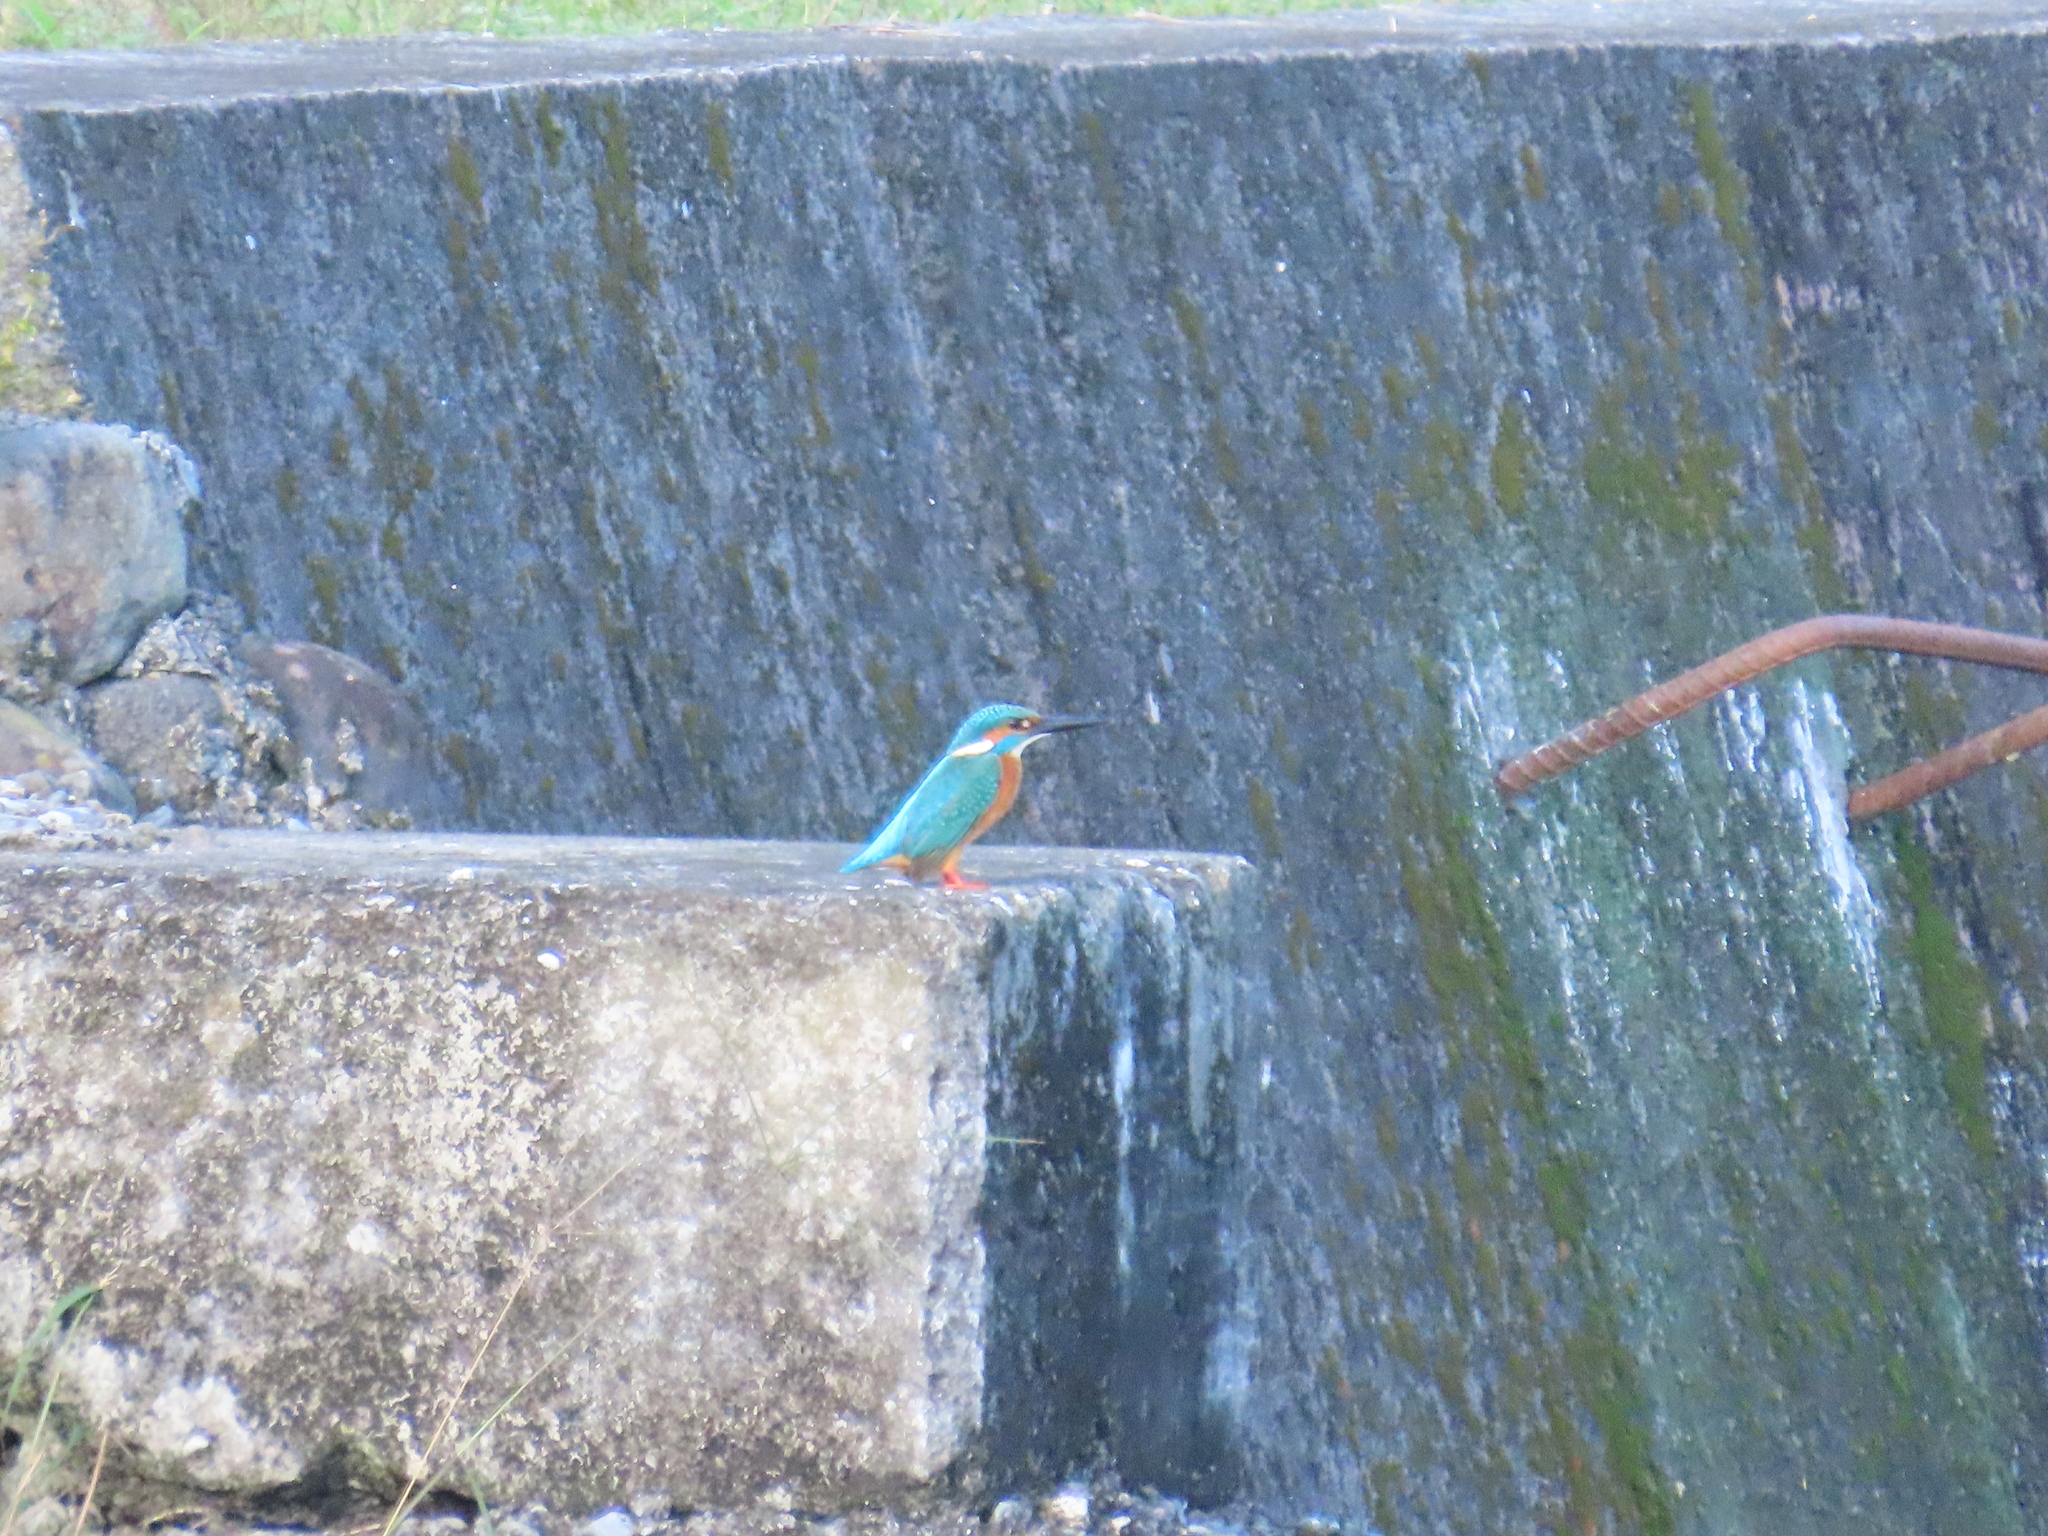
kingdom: Animalia
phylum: Chordata
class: Aves
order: Coraciiformes
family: Alcedinidae
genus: Alcedo
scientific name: Alcedo atthis
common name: Common kingfisher
